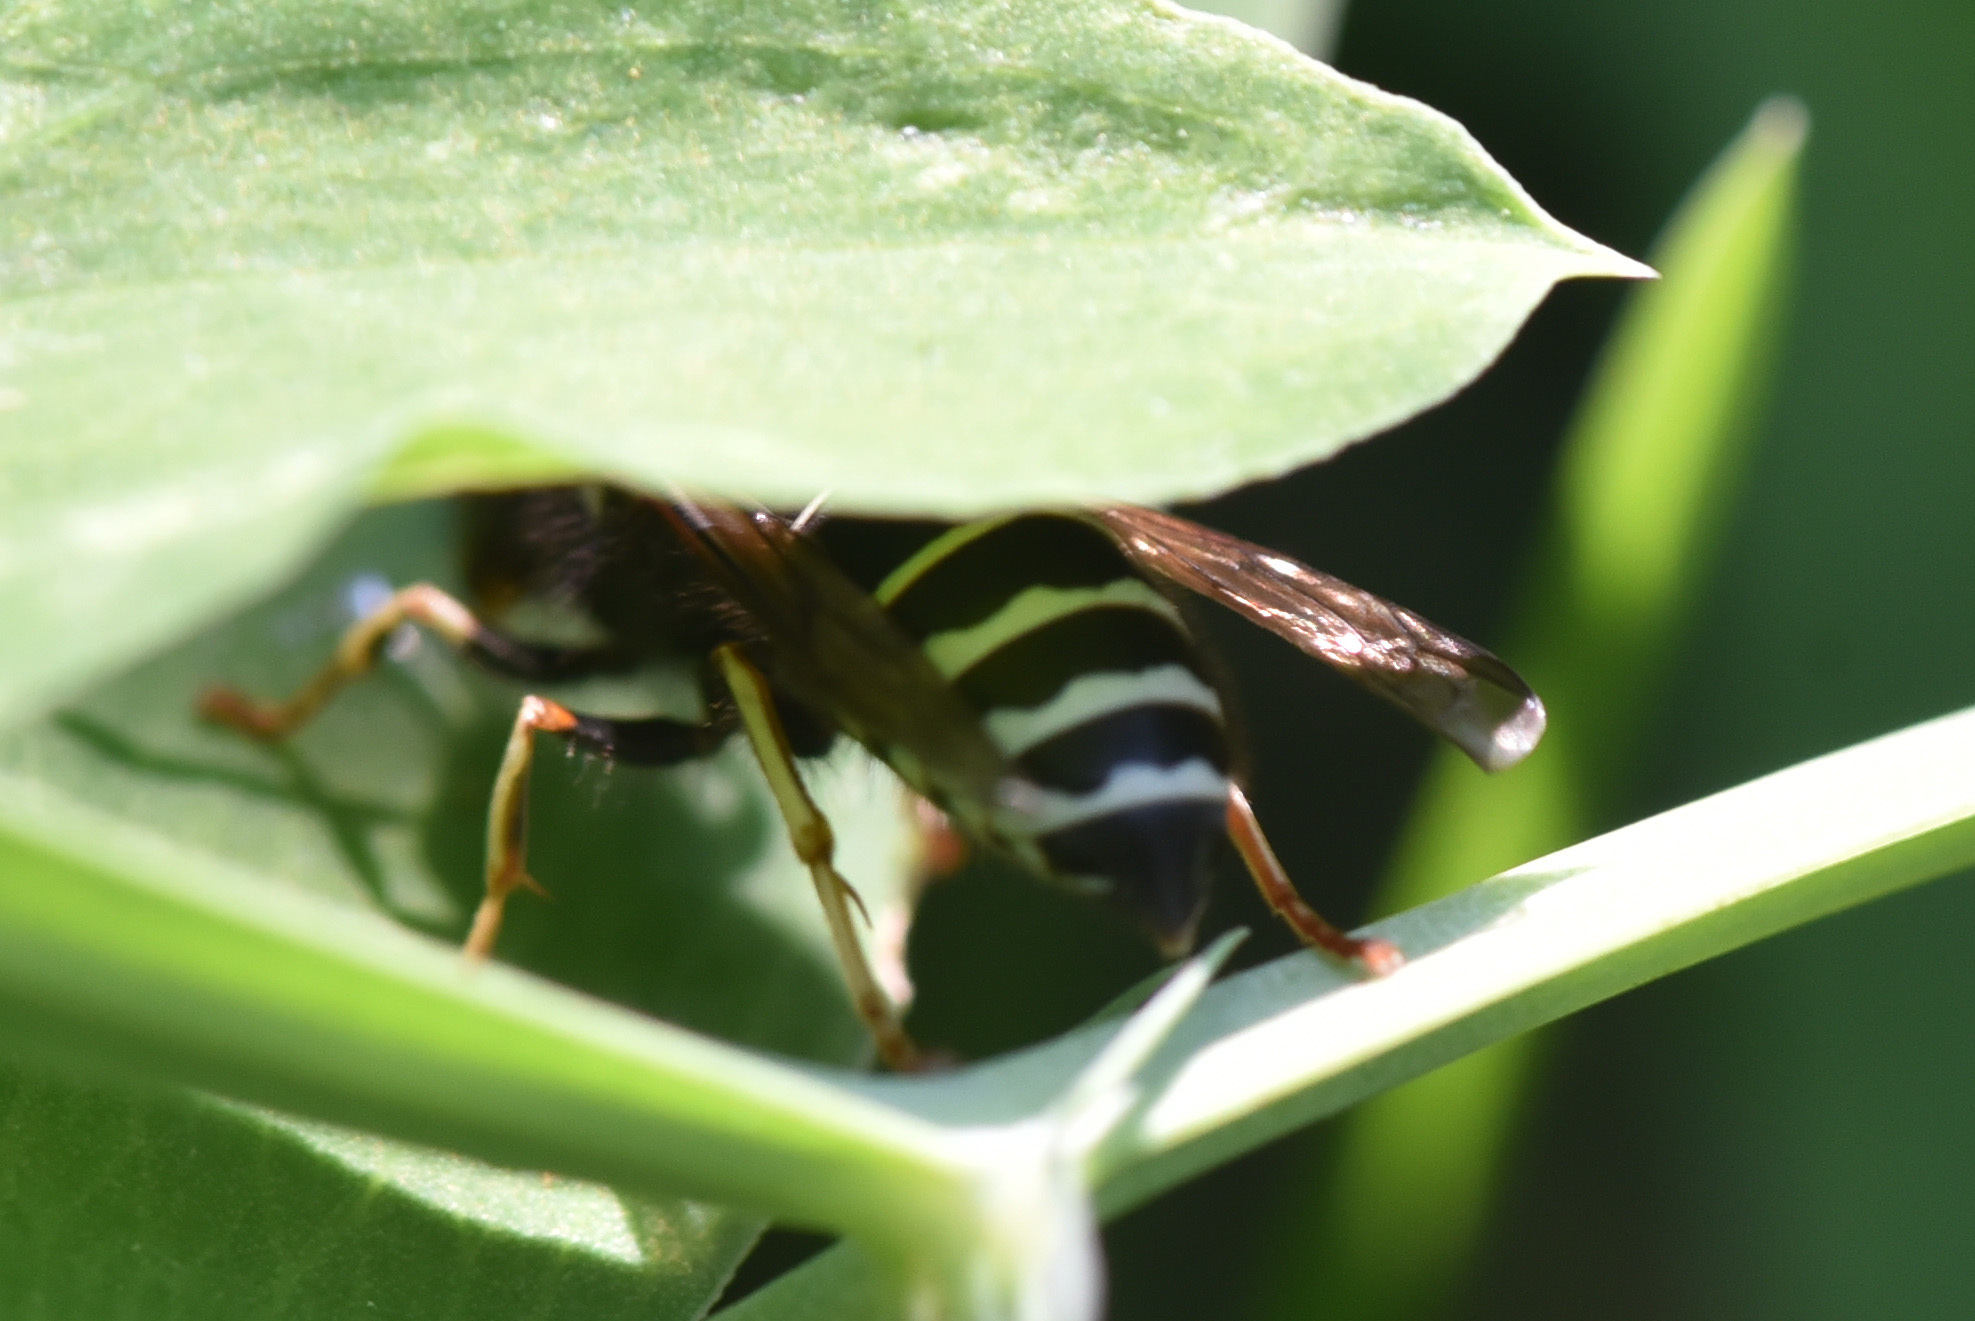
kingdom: Animalia
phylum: Arthropoda
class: Insecta
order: Hymenoptera
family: Vespidae
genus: Vespula
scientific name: Vespula consobrina
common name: Blackjacket
